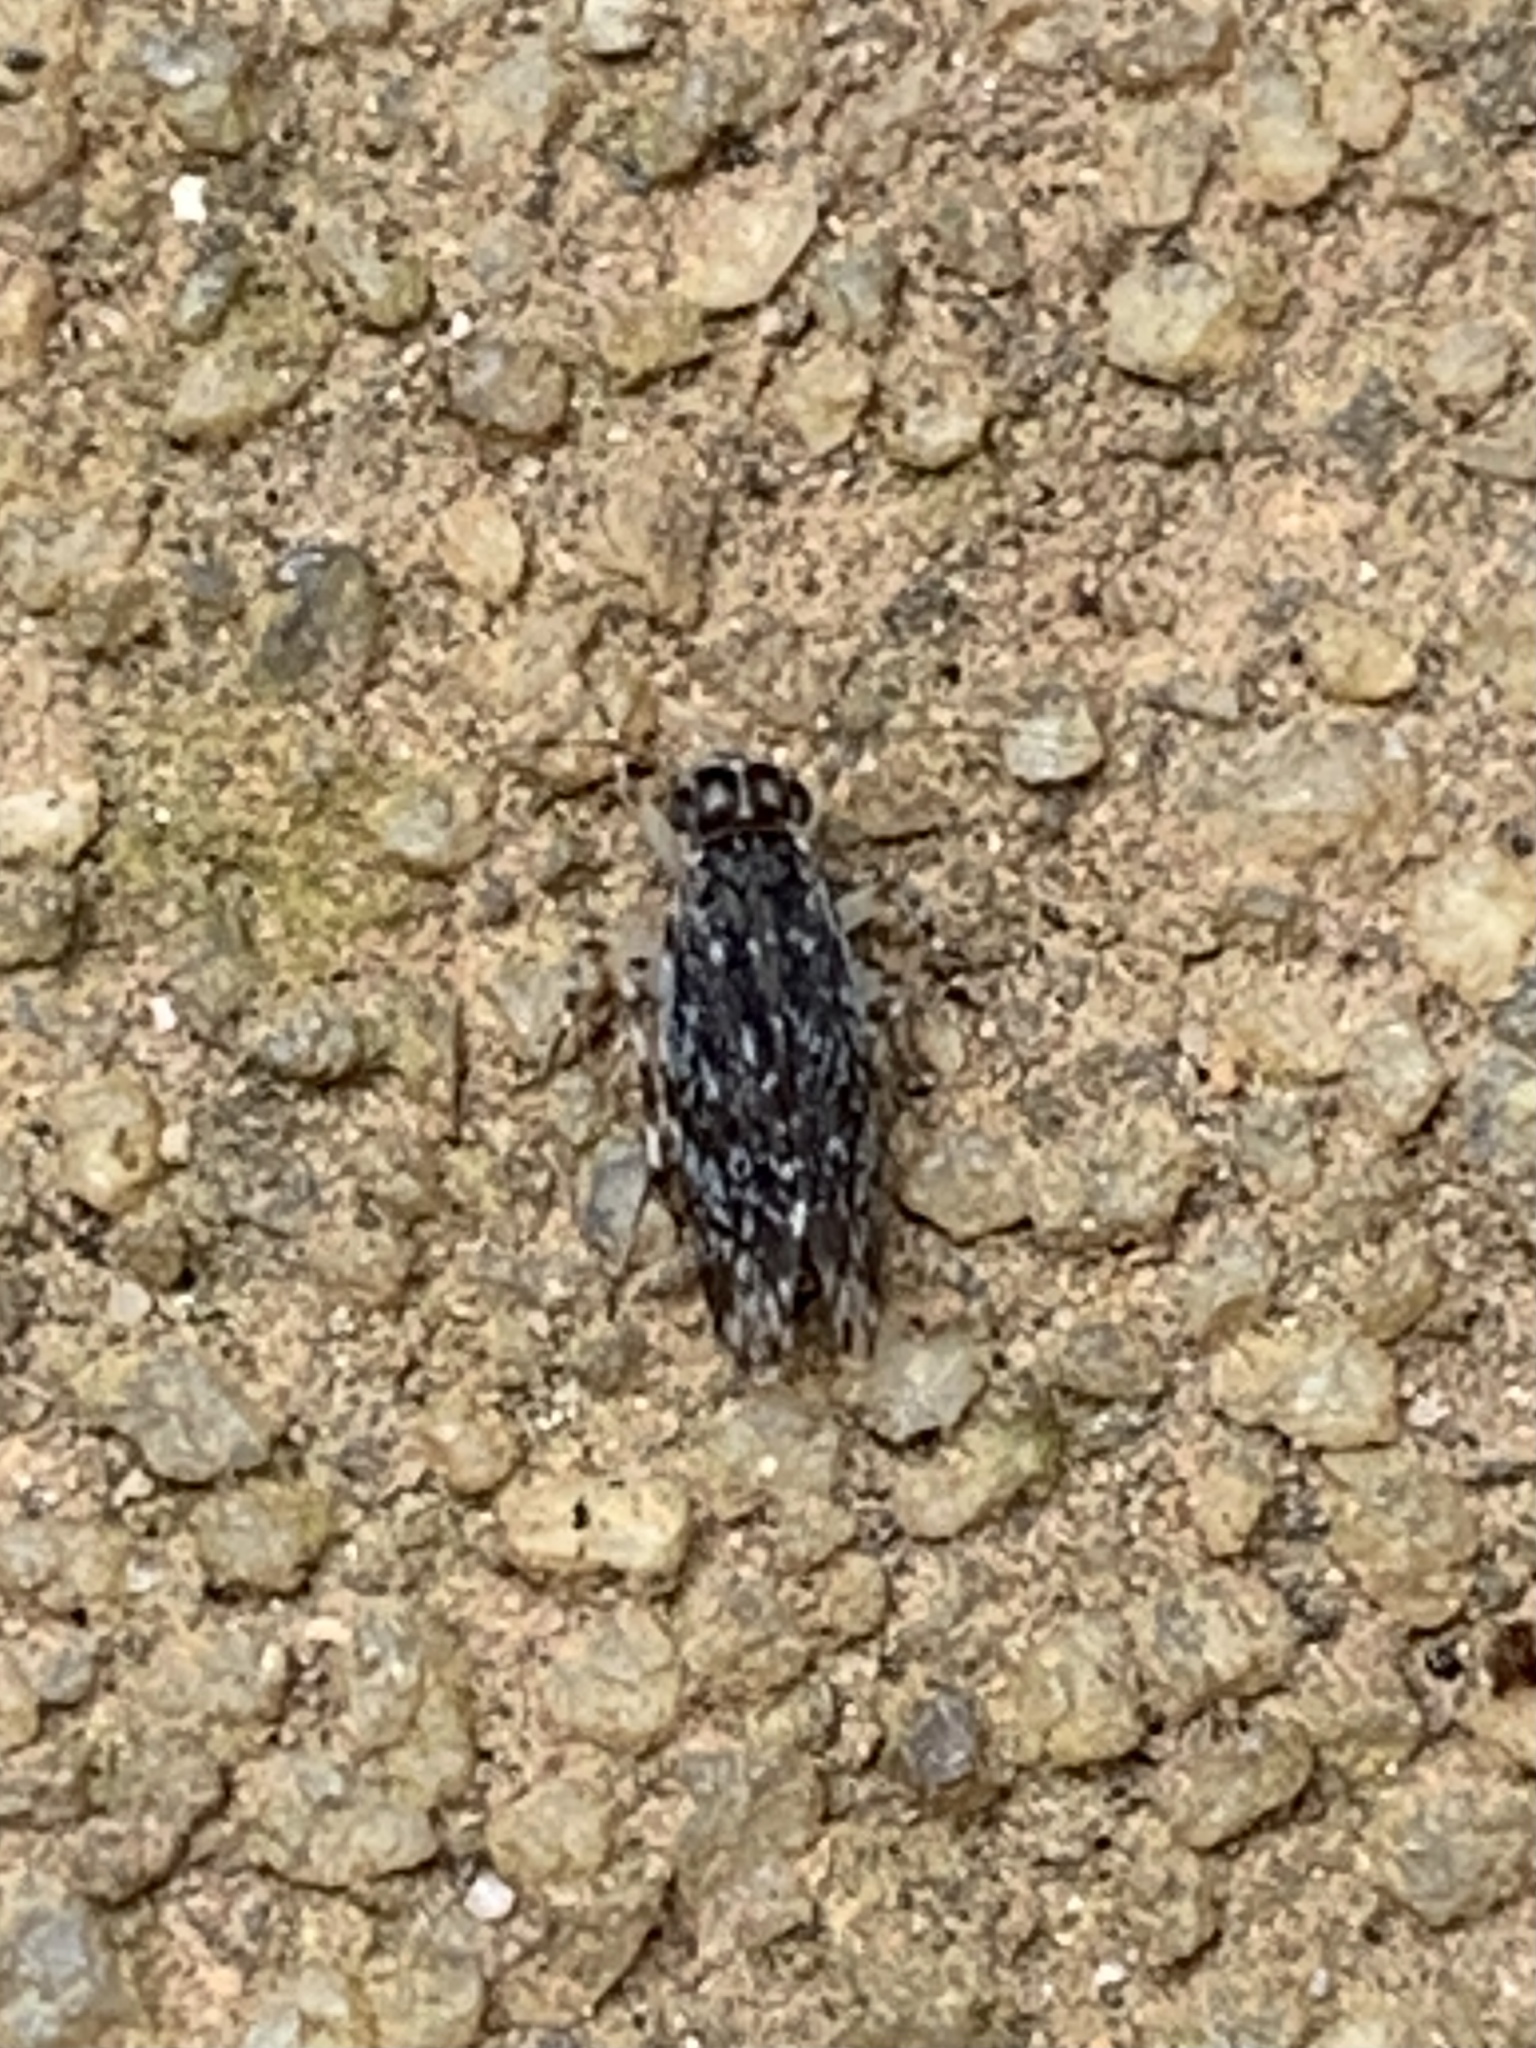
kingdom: Animalia
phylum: Arthropoda
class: Insecta
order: Psocodea
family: Amphientomidae
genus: Stimulopalpus
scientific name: Stimulopalpus japonicus
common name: Tropical bark louse
